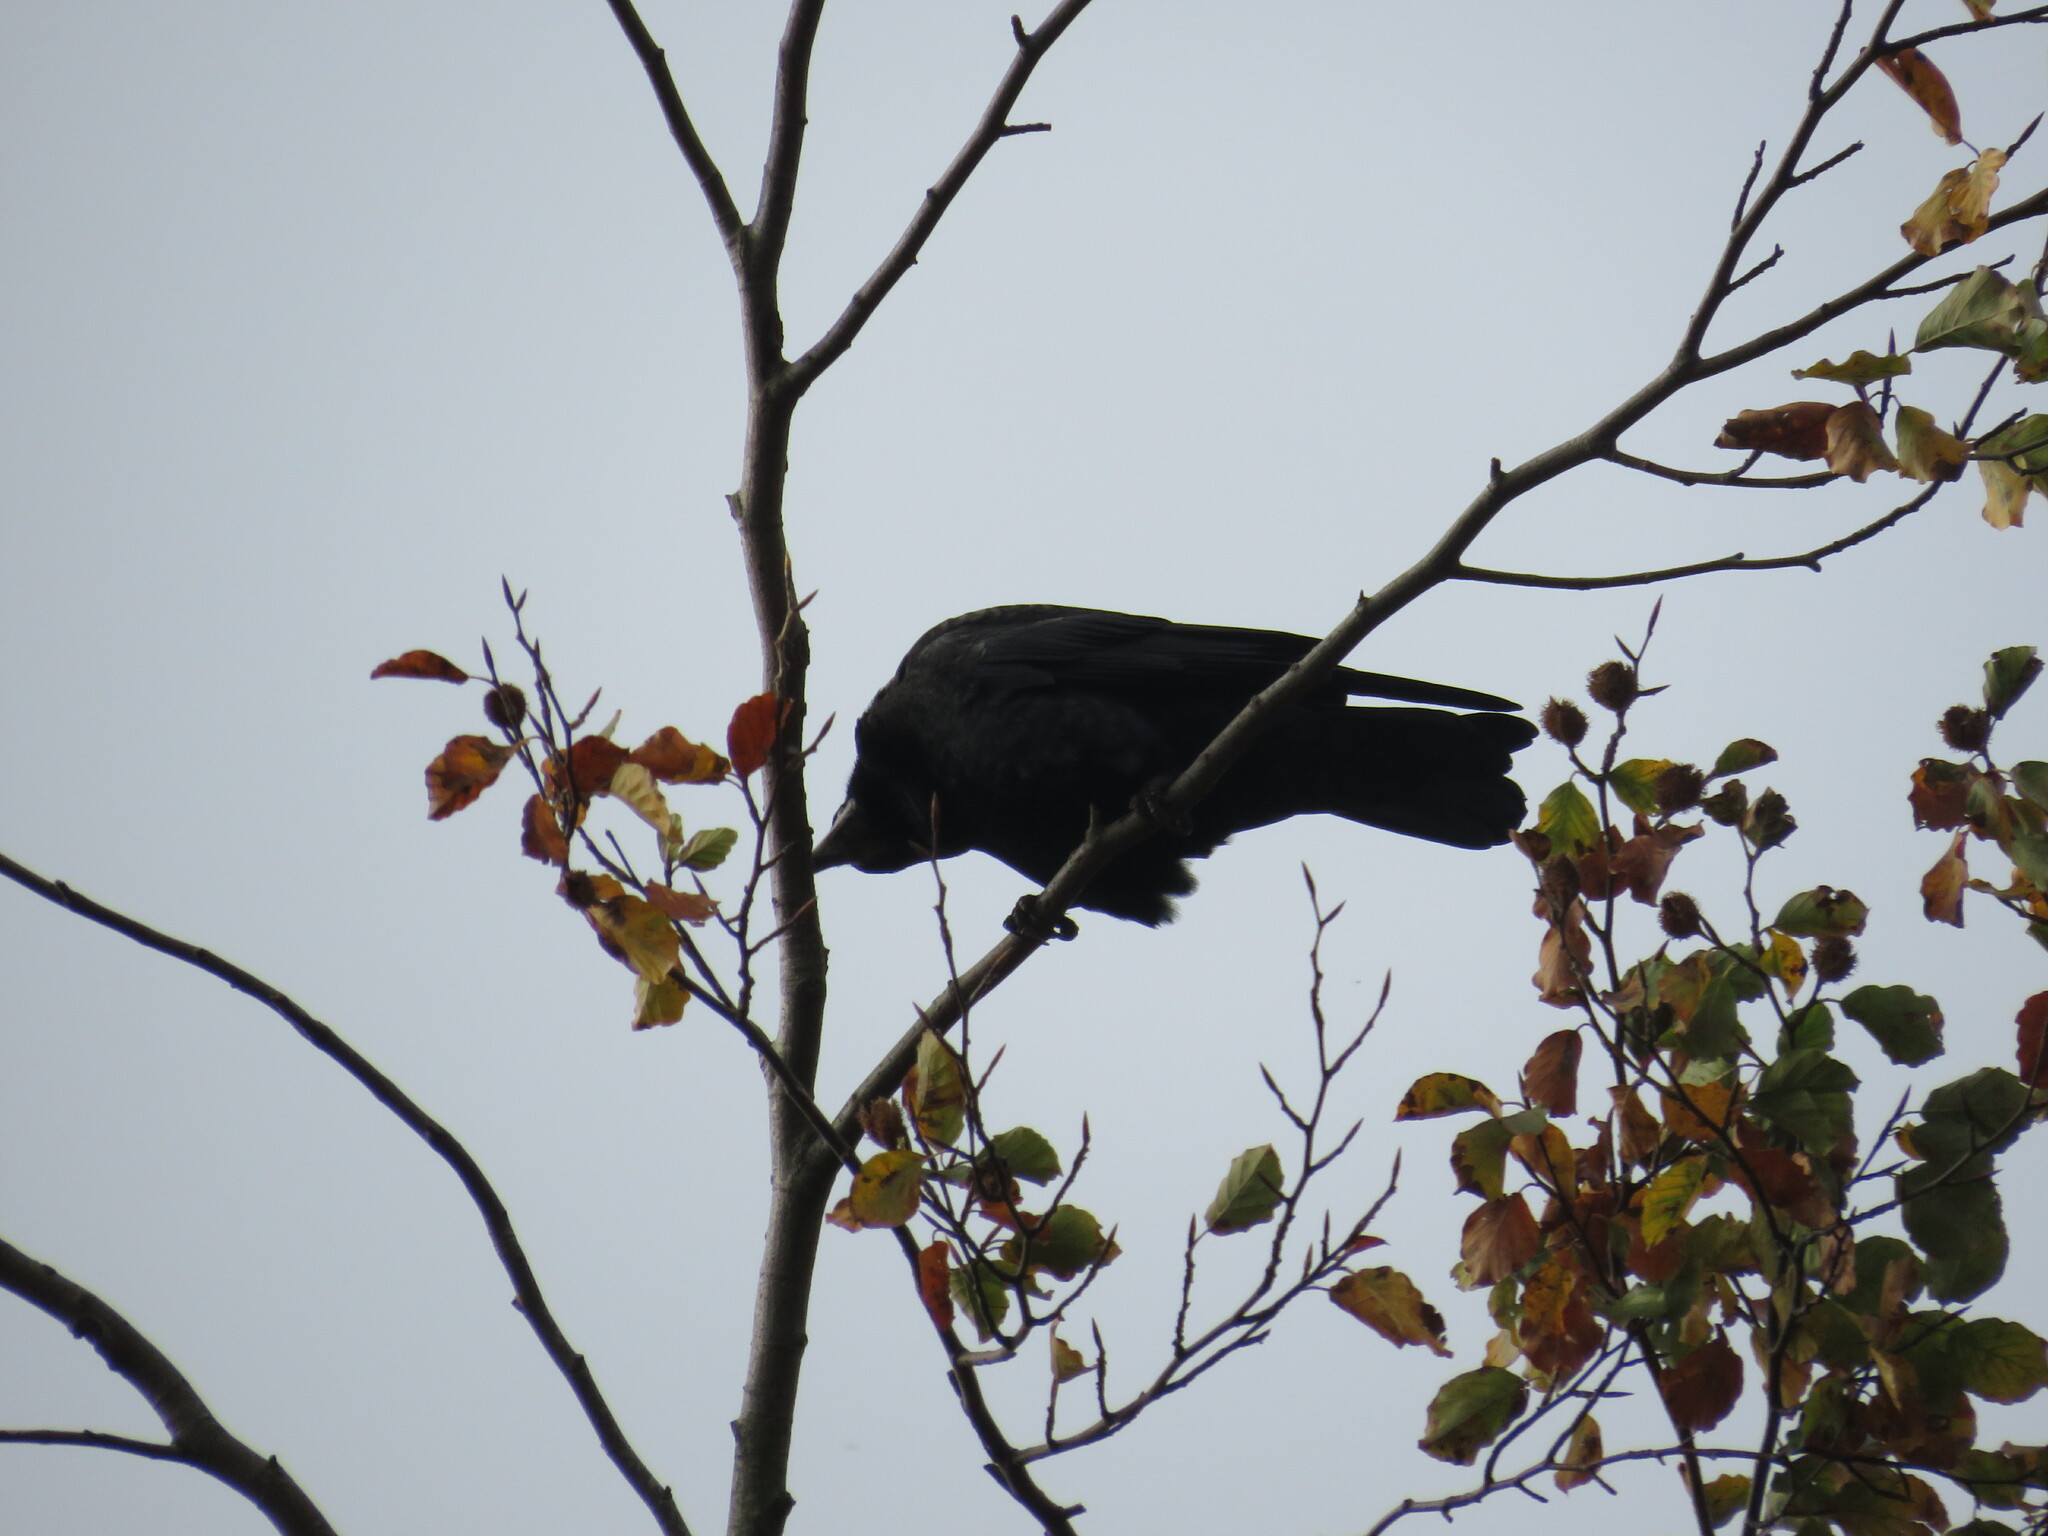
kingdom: Animalia
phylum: Chordata
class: Aves
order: Passeriformes
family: Corvidae
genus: Corvus
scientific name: Corvus frugilegus
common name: Rook
